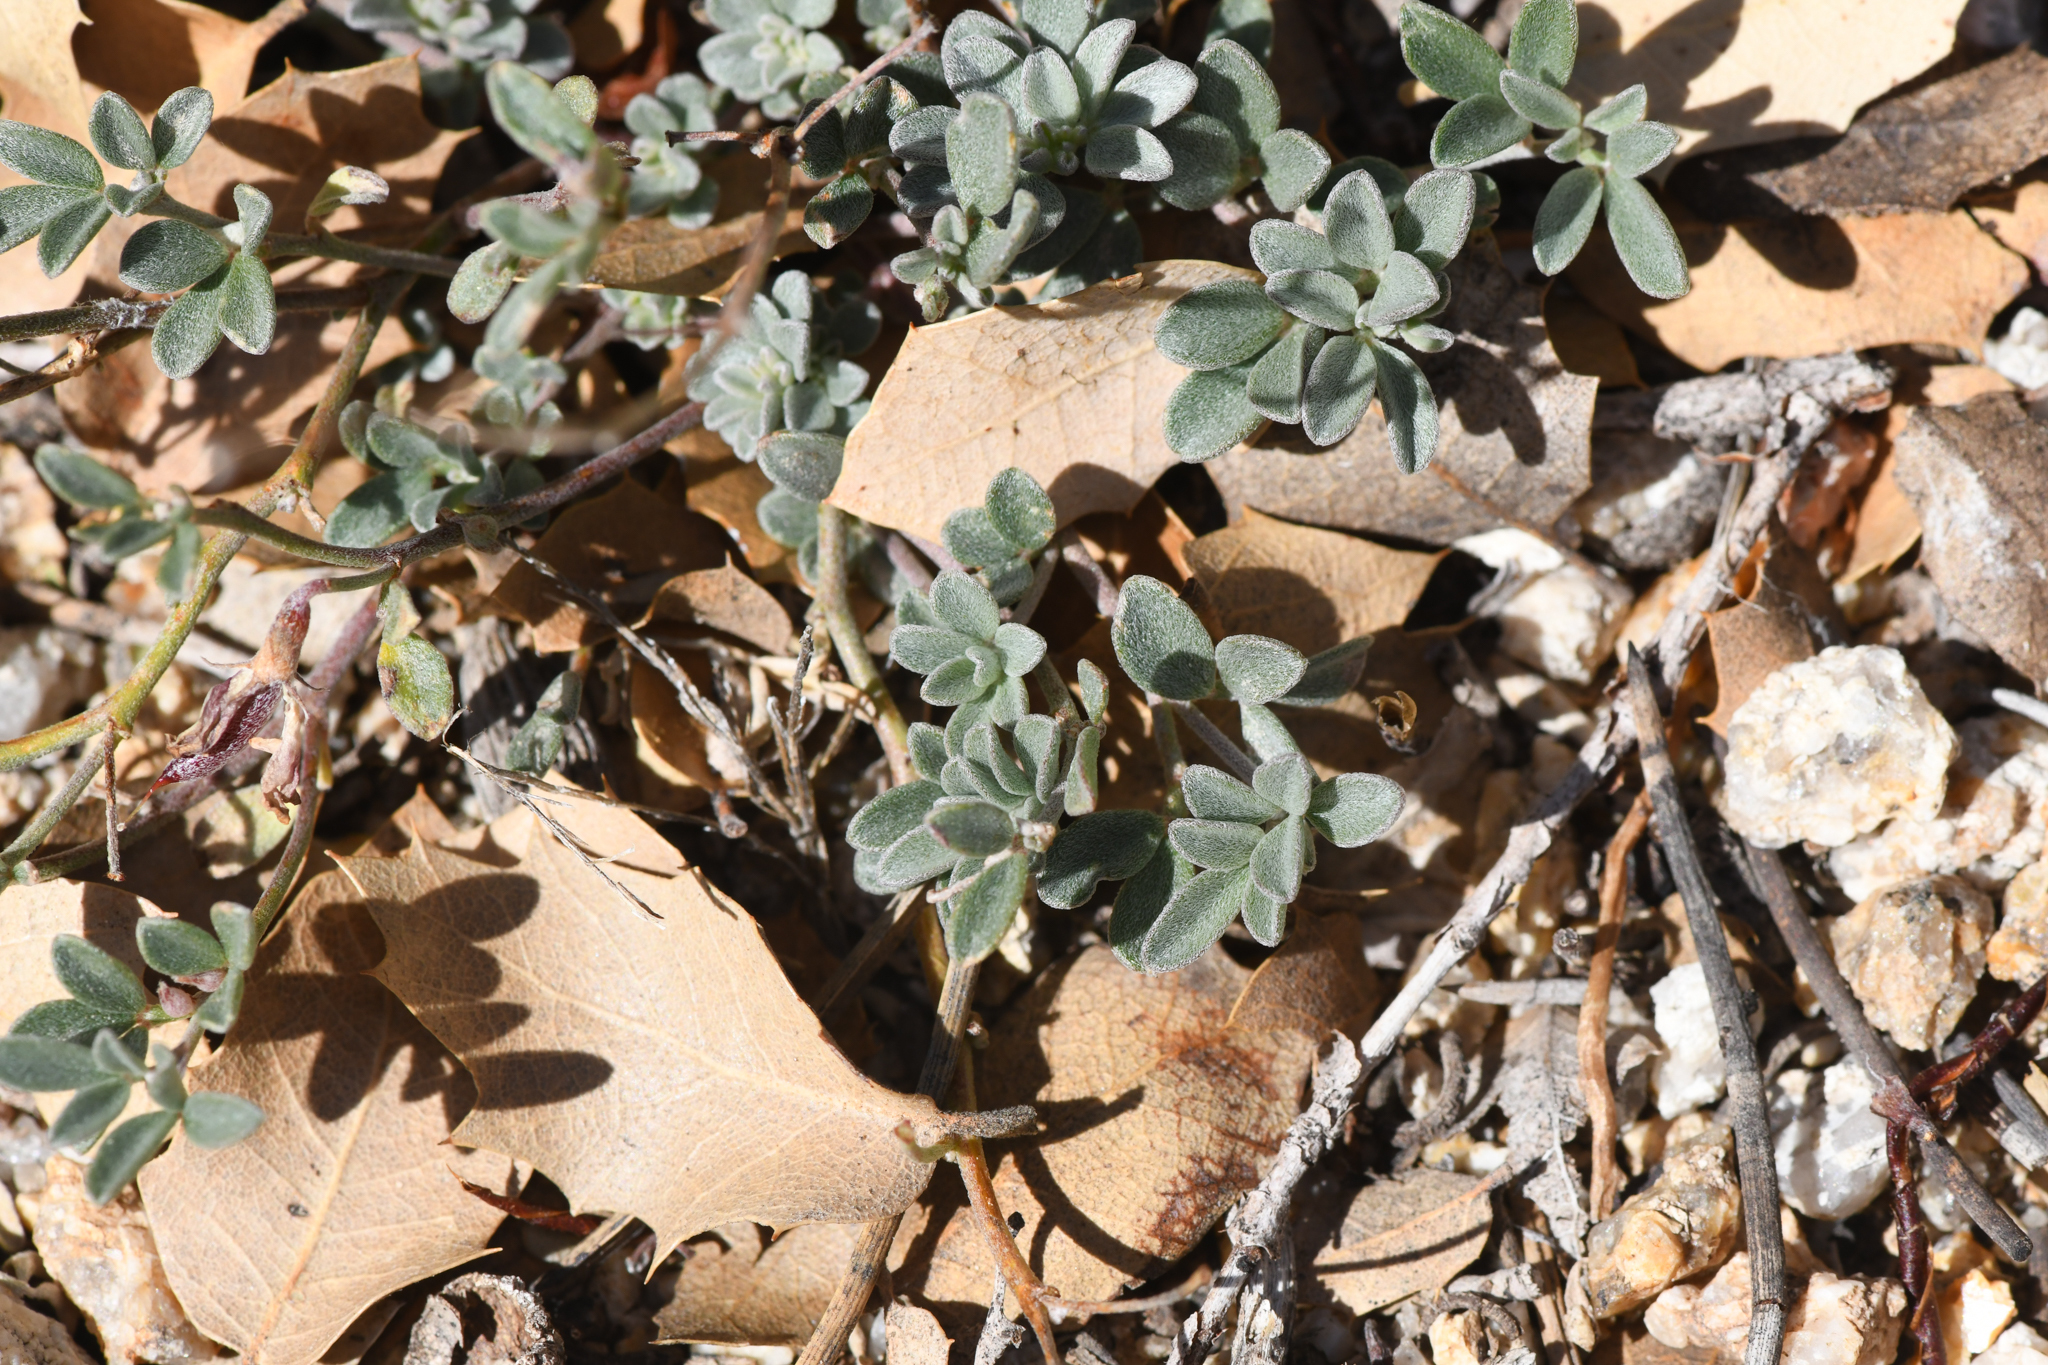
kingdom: Plantae
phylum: Tracheophyta
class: Magnoliopsida
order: Fabales
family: Fabaceae
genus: Acmispon
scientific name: Acmispon argyraeus
